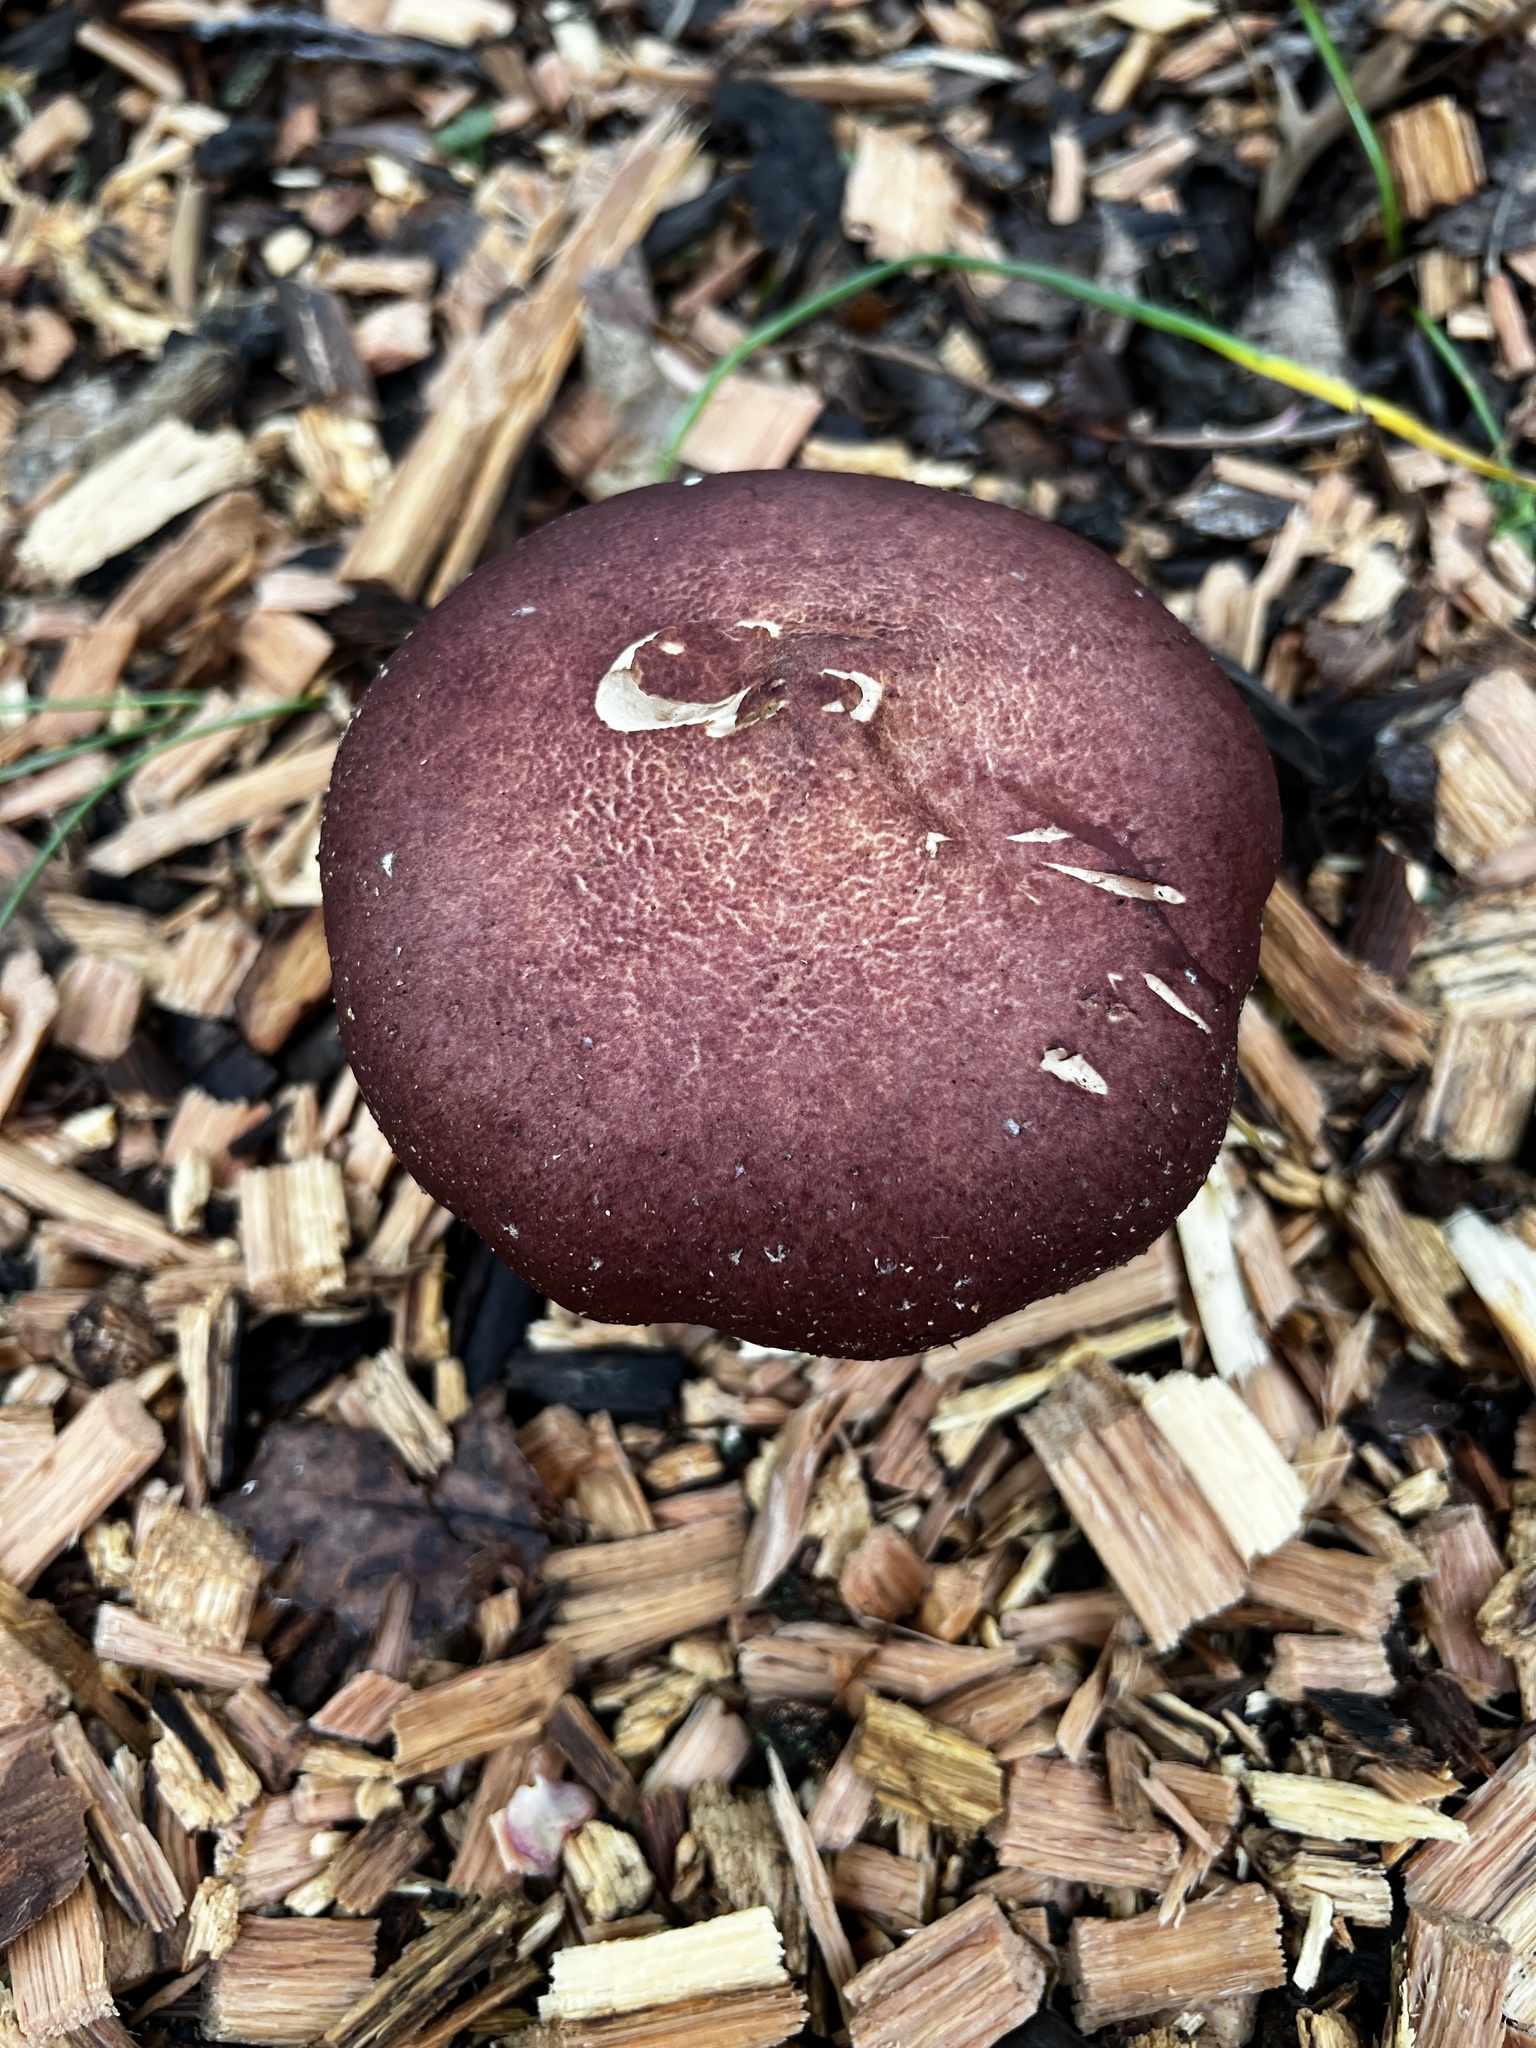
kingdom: Fungi
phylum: Basidiomycota
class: Agaricomycetes
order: Agaricales
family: Strophariaceae
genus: Stropharia
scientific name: Stropharia rugosoannulata
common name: Wine roundhead
